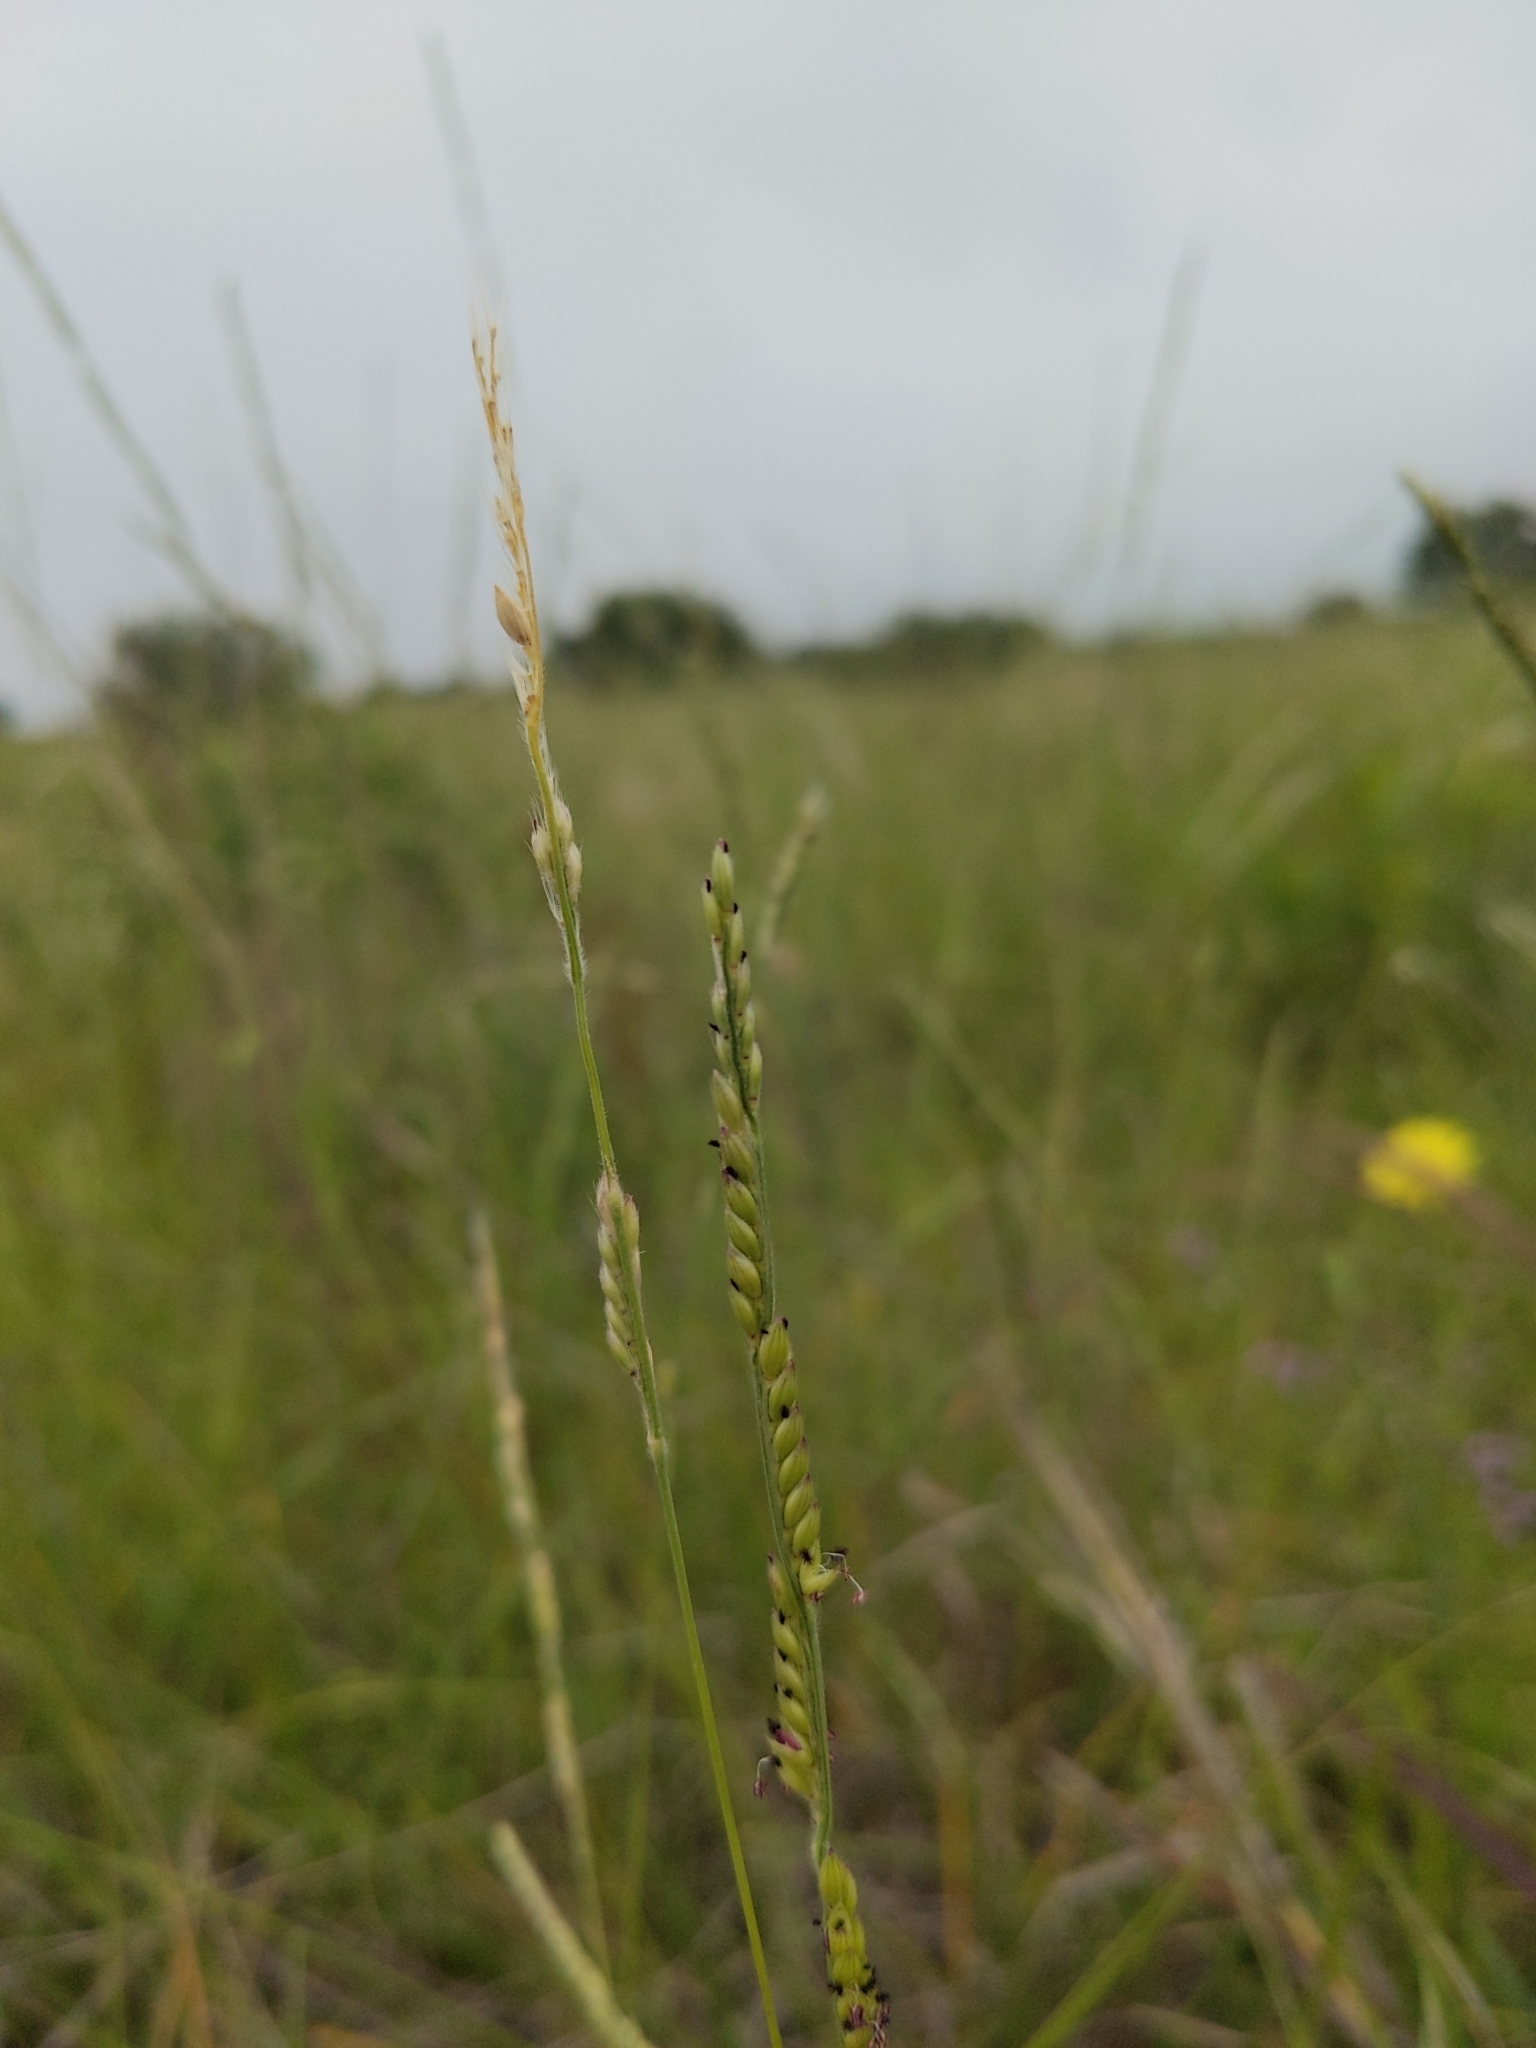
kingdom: Plantae
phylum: Tracheophyta
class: Liliopsida
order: Poales
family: Poaceae
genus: Eriochloa
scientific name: Eriochloa sericea
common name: Texas cup grass
